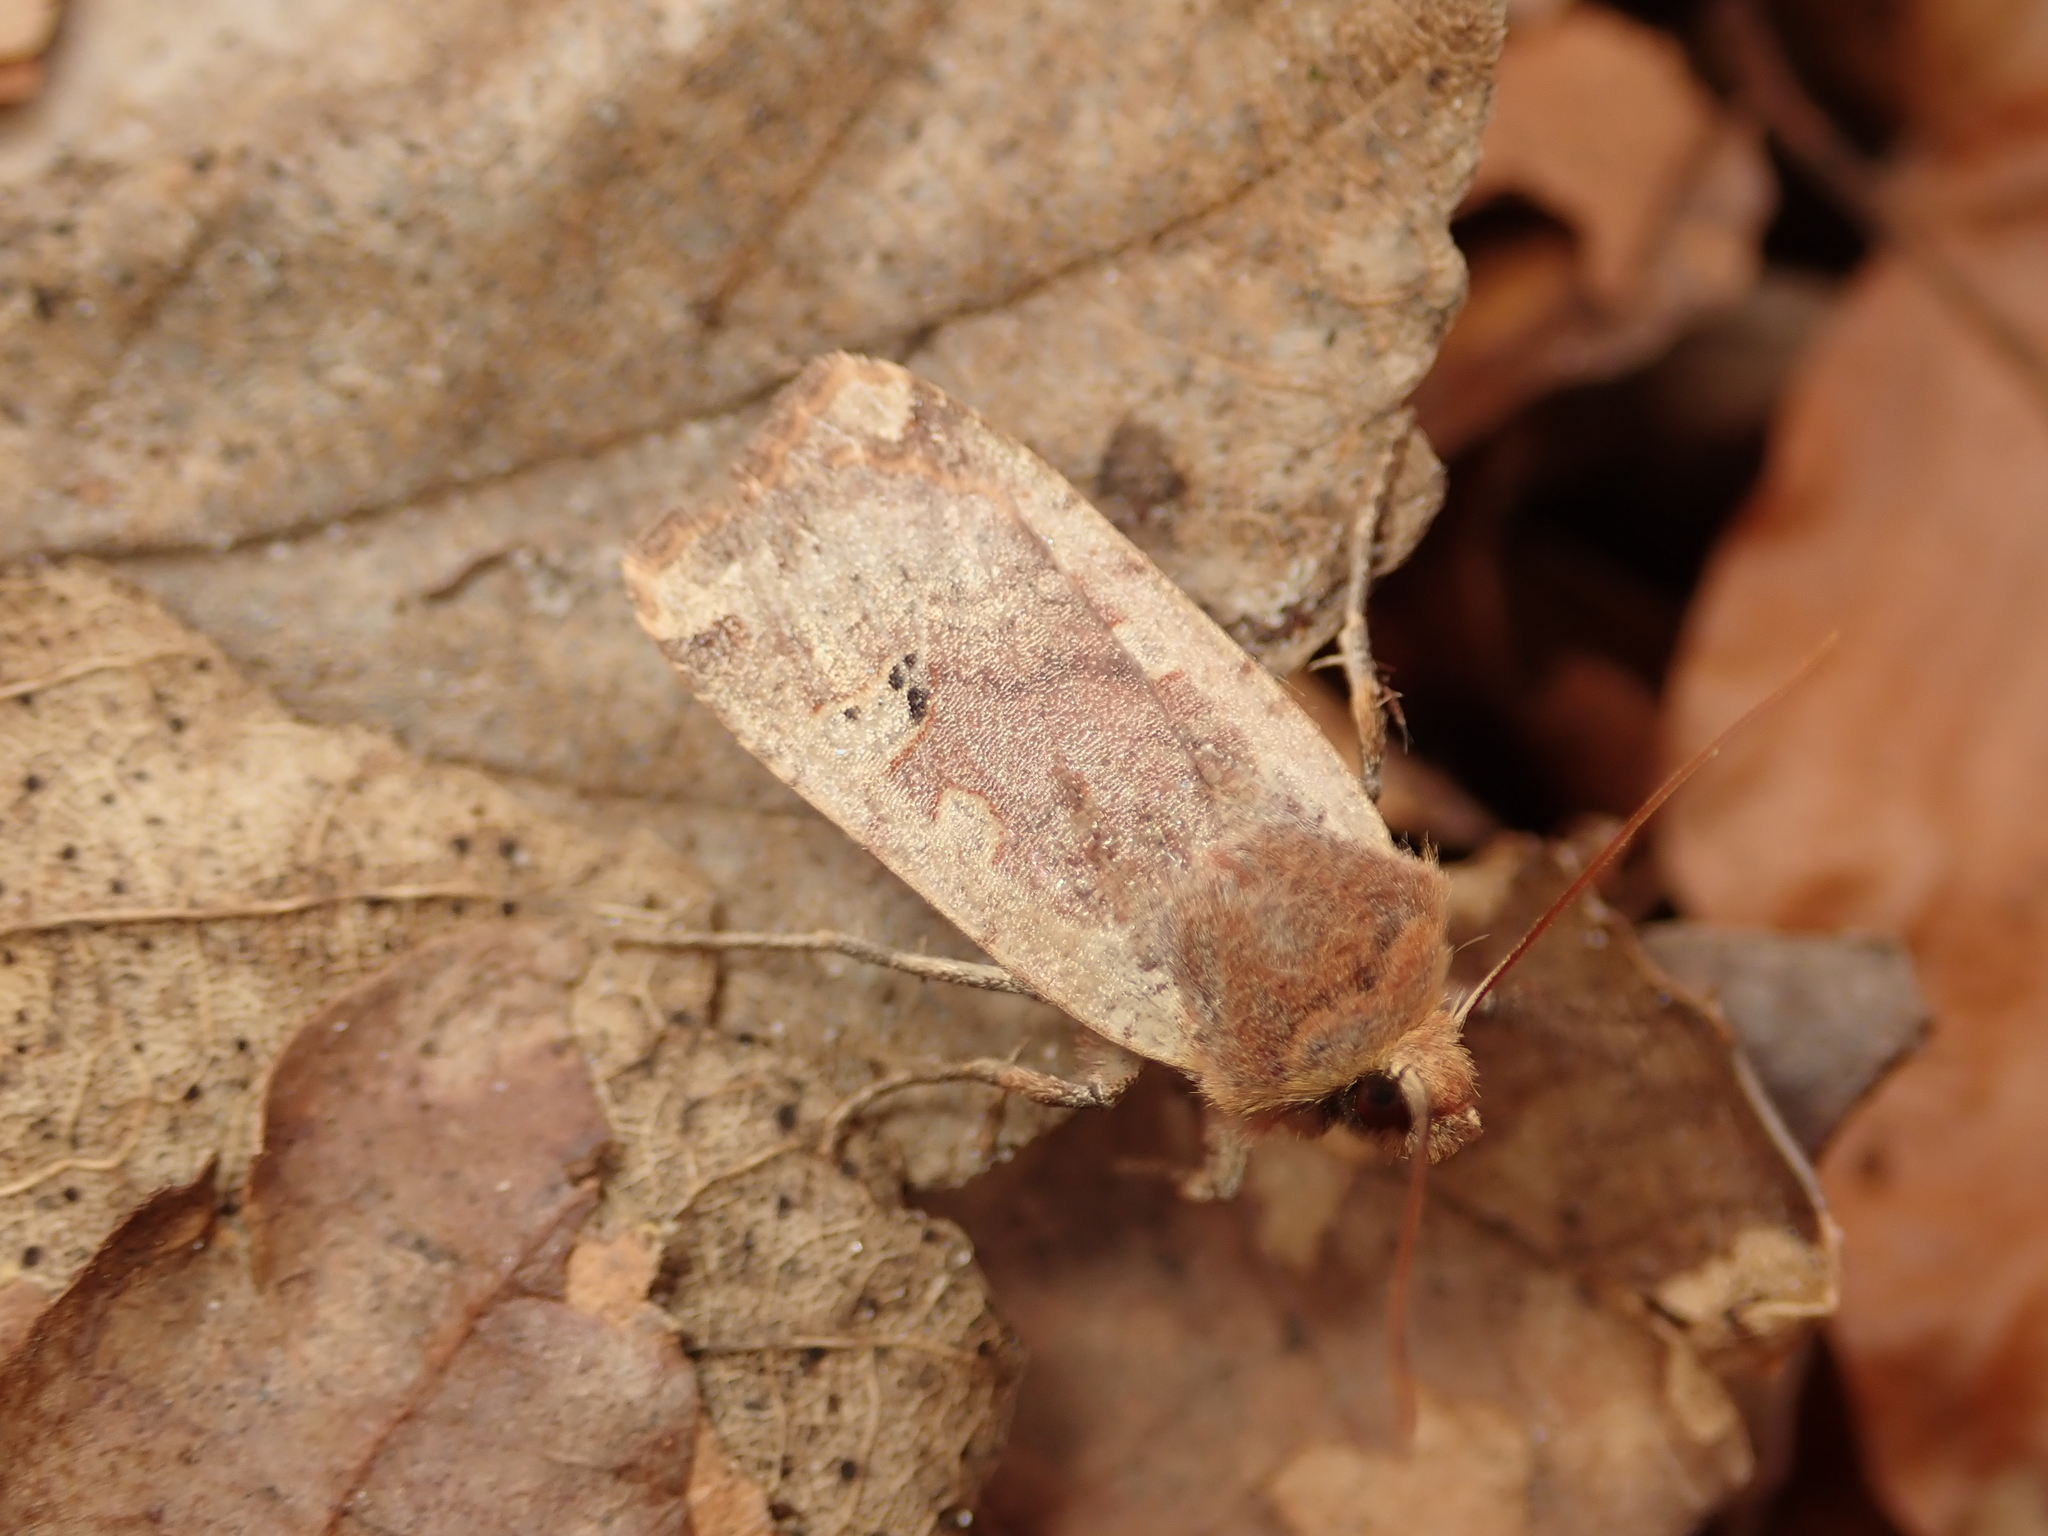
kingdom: Animalia
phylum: Arthropoda
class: Insecta
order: Lepidoptera
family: Noctuidae
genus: Conistra
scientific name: Conistra erythrocephala
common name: Red-headed chestnut
